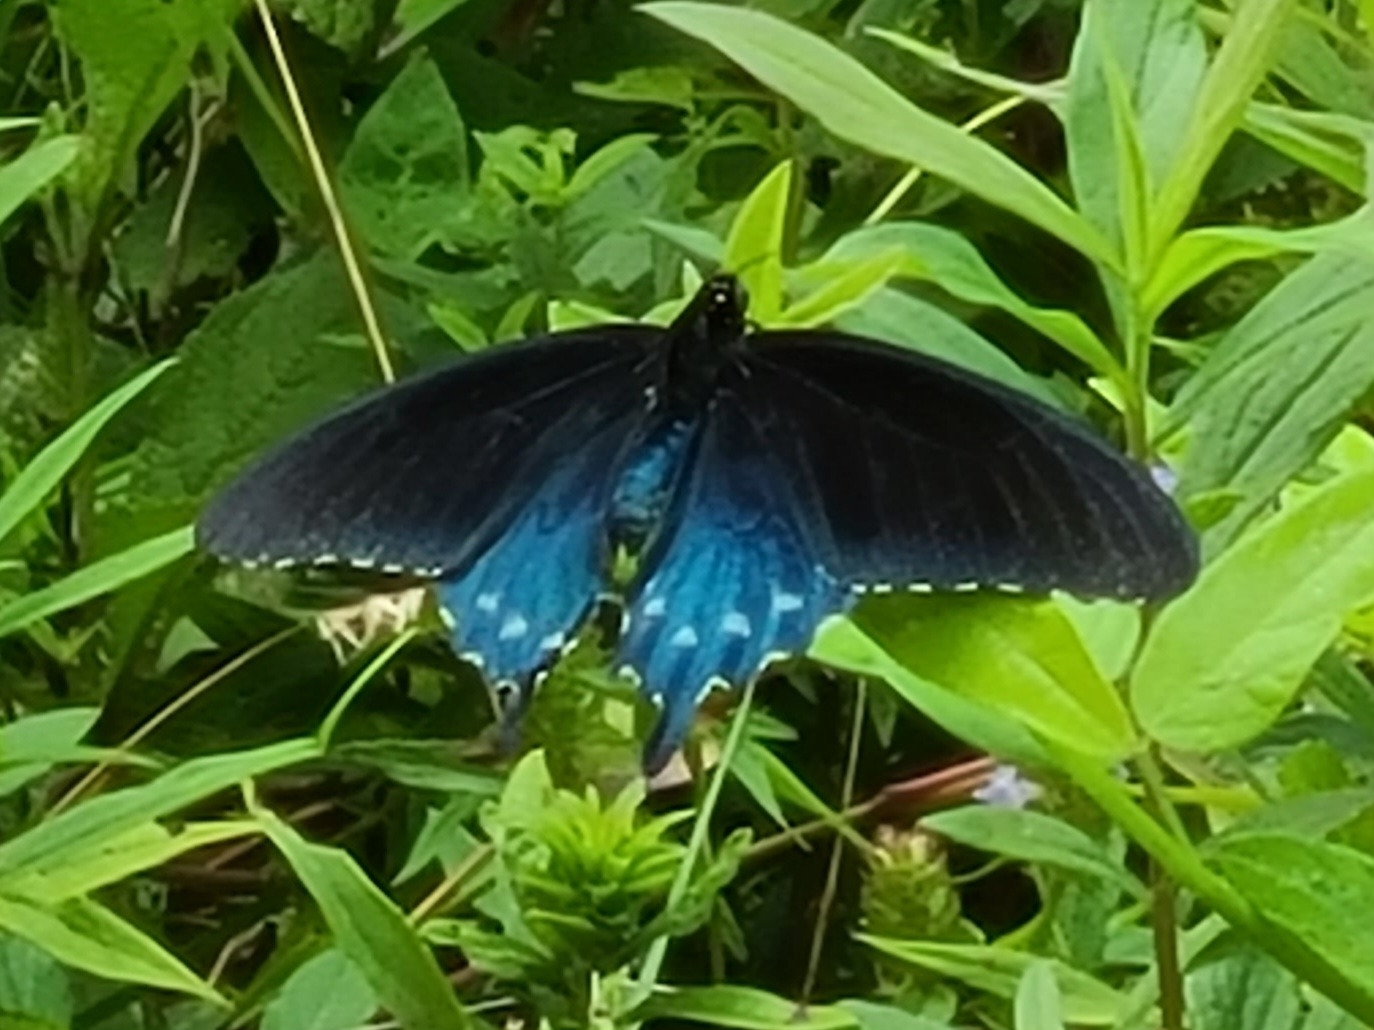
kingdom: Animalia
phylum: Arthropoda
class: Insecta
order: Lepidoptera
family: Papilionidae
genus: Battus
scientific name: Battus philenor
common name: Pipevine swallowtail
